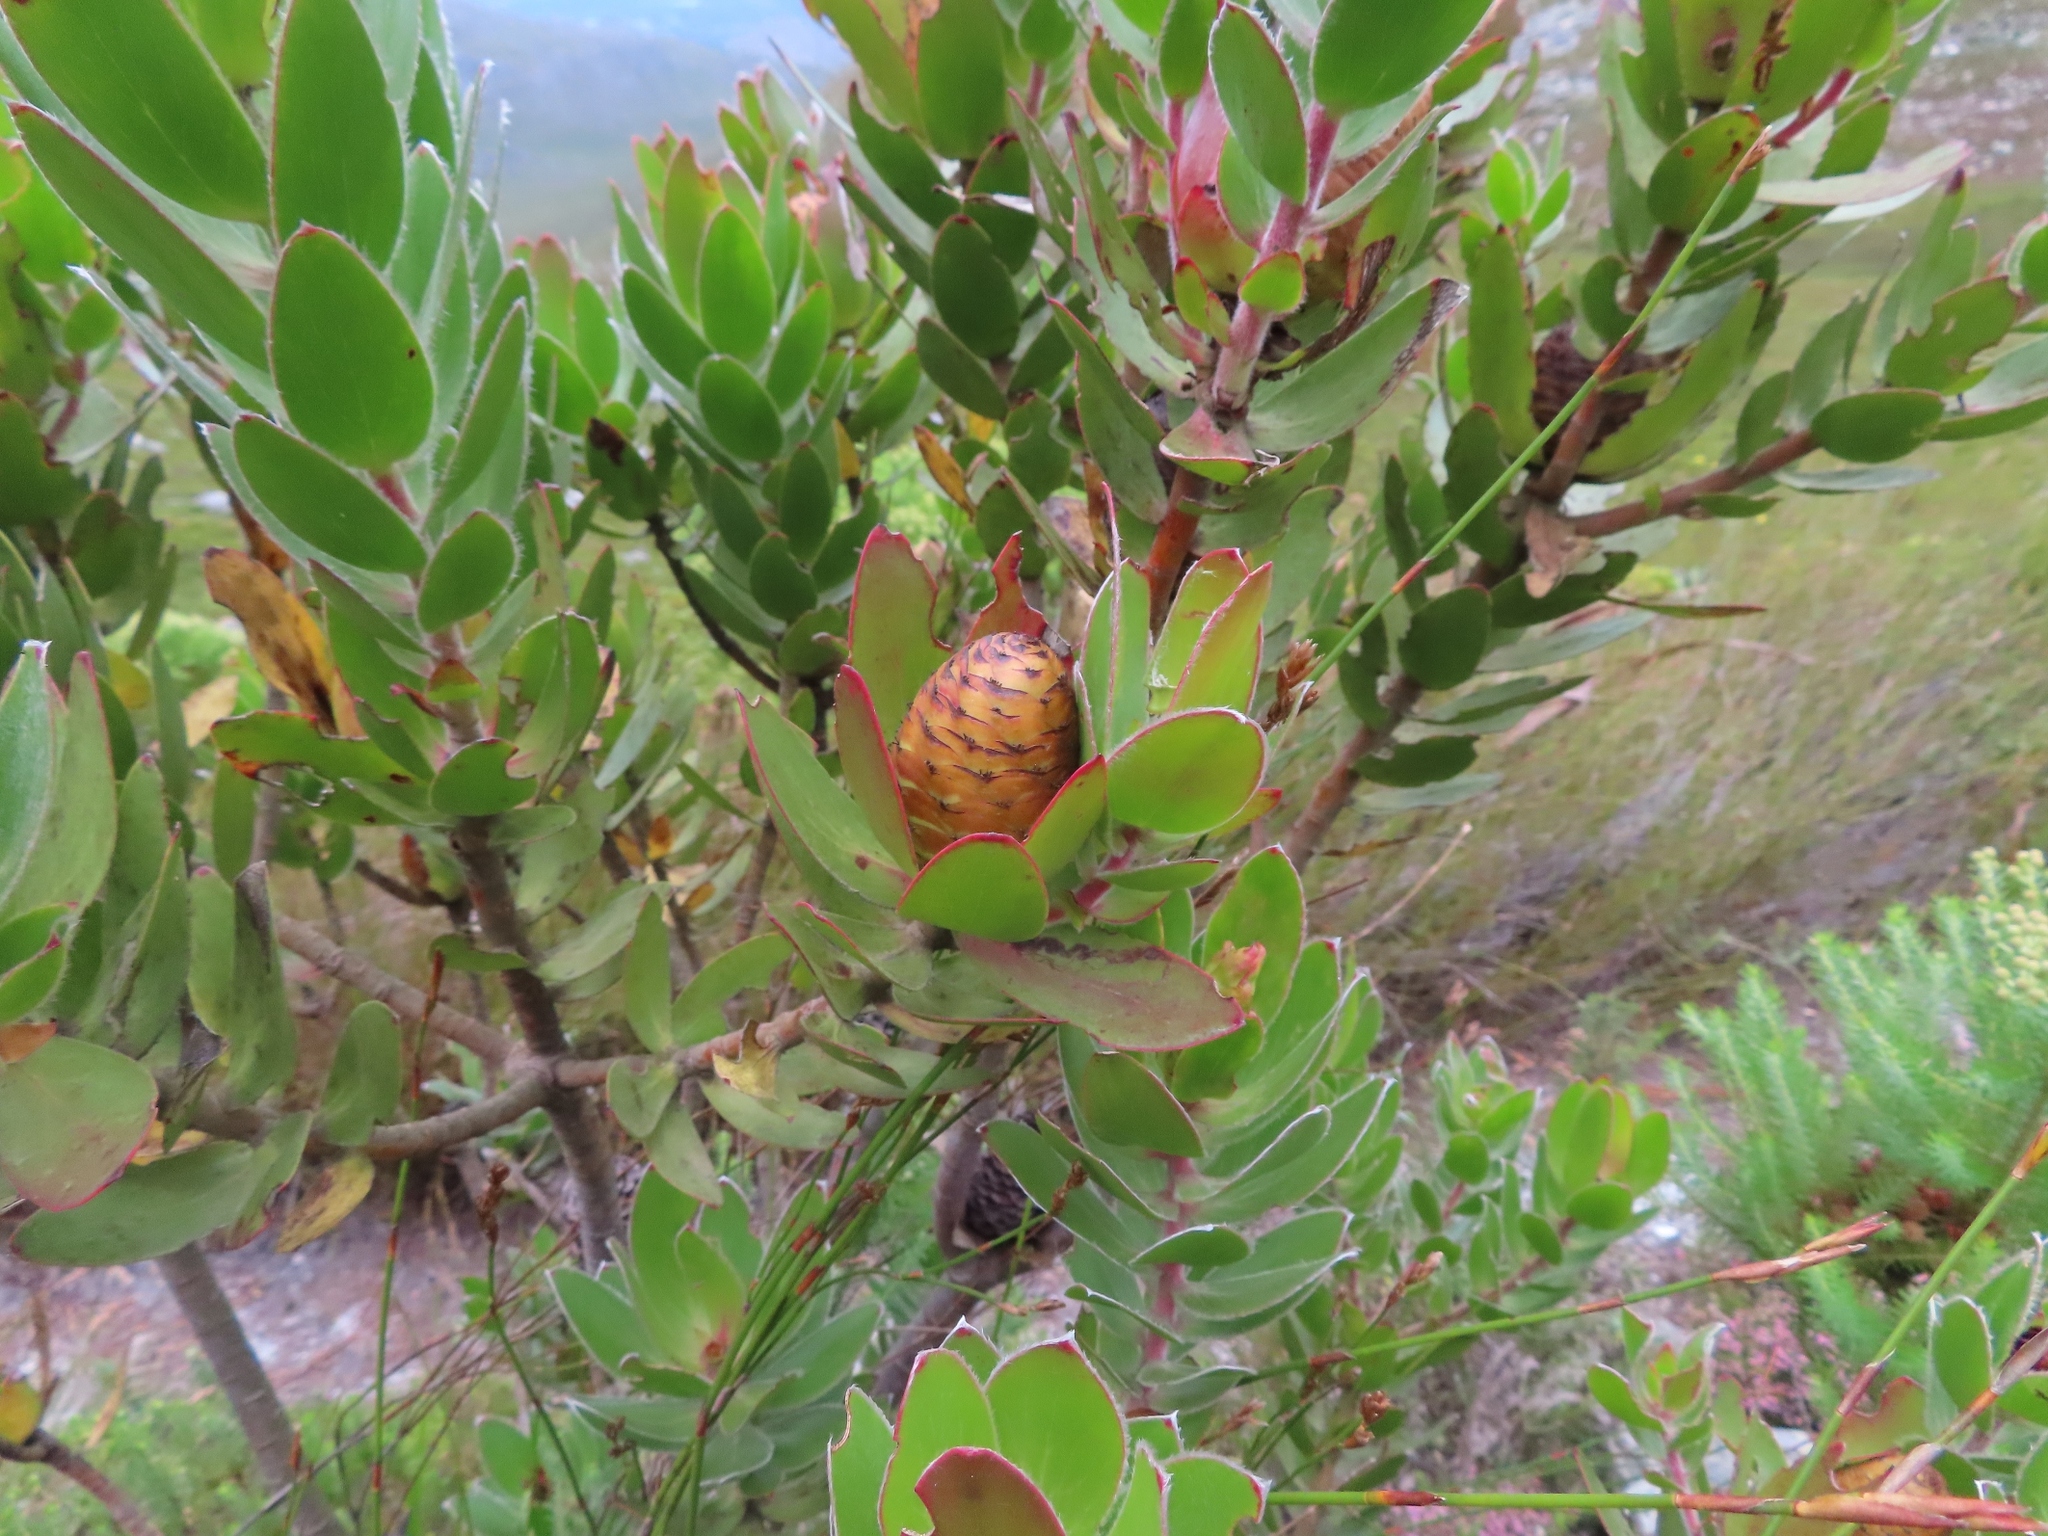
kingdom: Plantae
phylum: Tracheophyta
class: Magnoliopsida
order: Proteales
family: Proteaceae
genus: Leucadendron
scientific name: Leucadendron gandogeri
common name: Broad-leaf conebush
